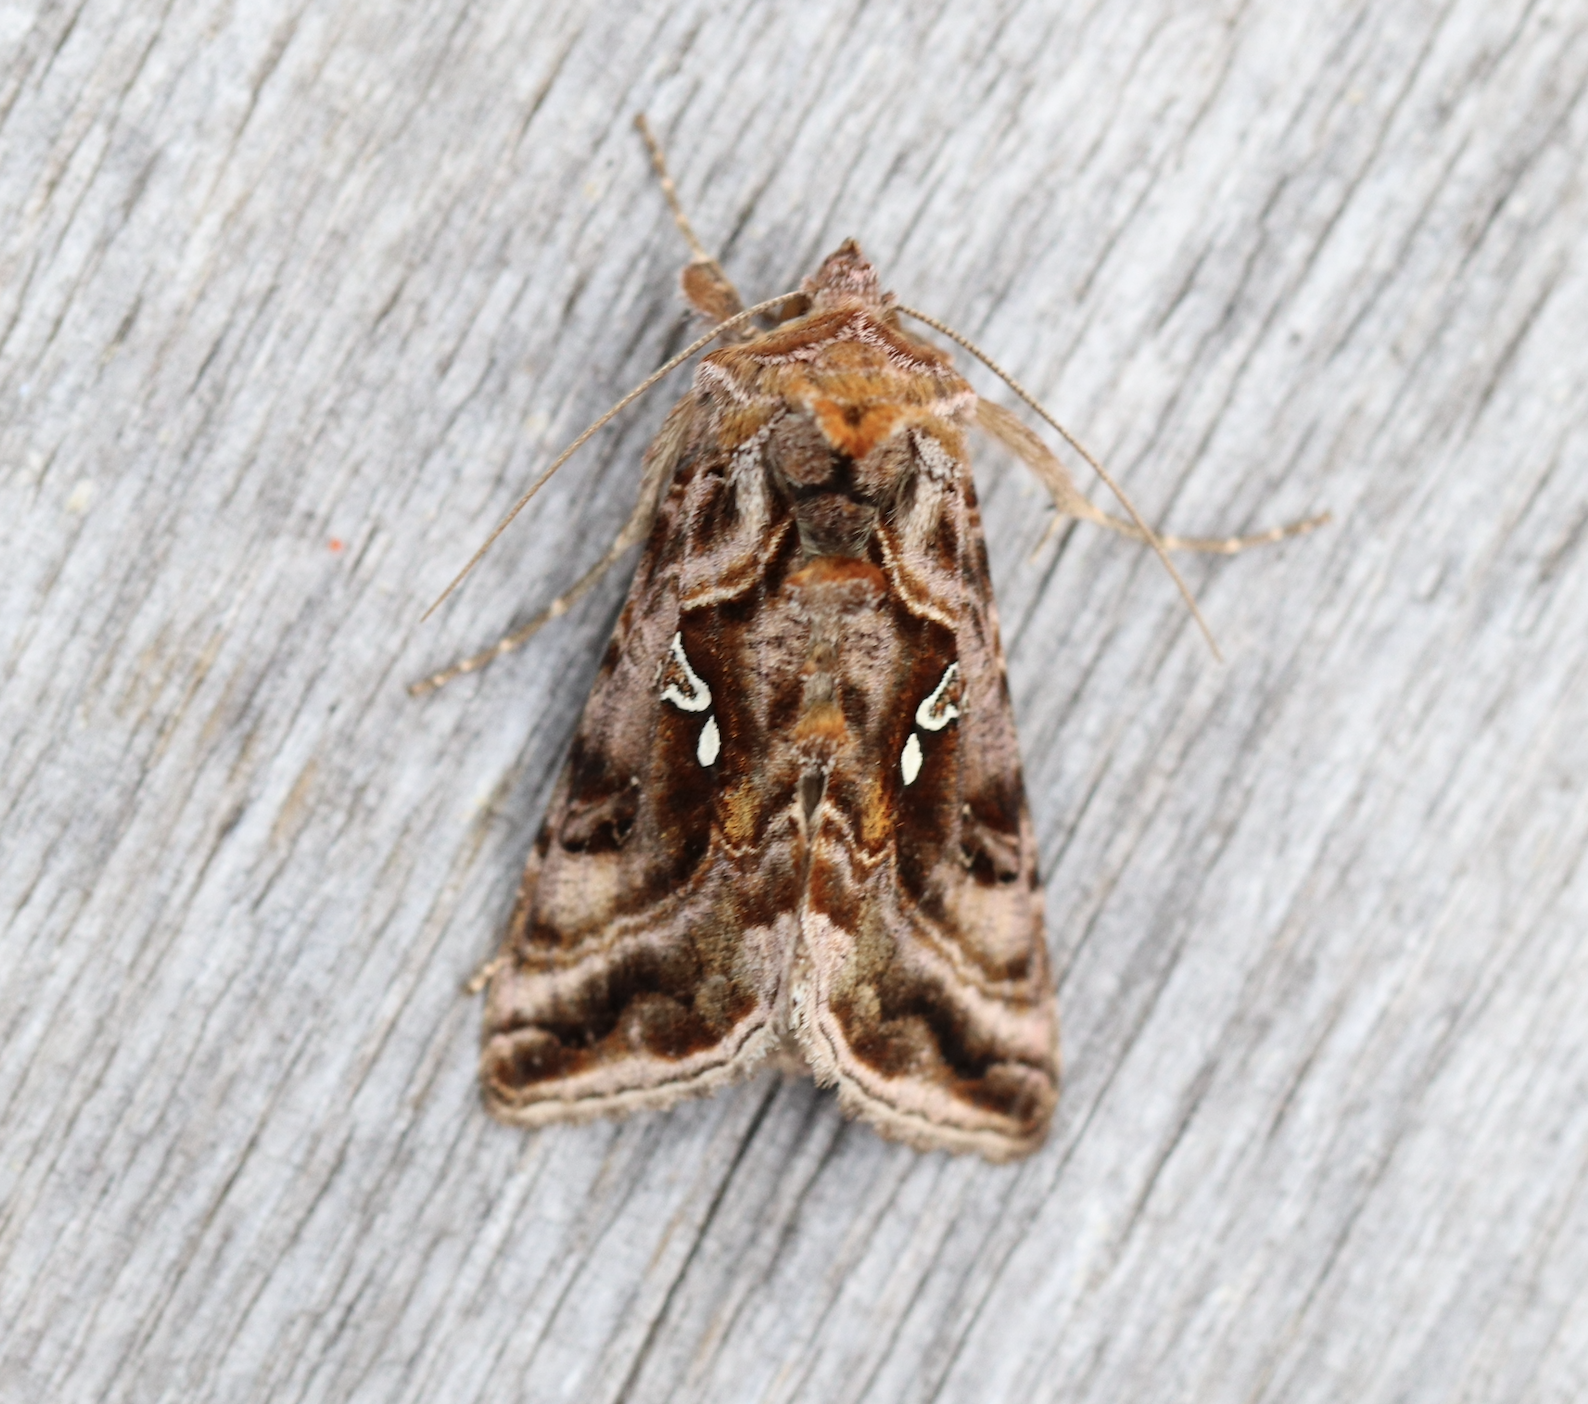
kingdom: Animalia
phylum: Arthropoda
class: Insecta
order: Lepidoptera
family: Noctuidae
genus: Autographa
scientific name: Autographa pulchrina
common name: Beautiful golden y
